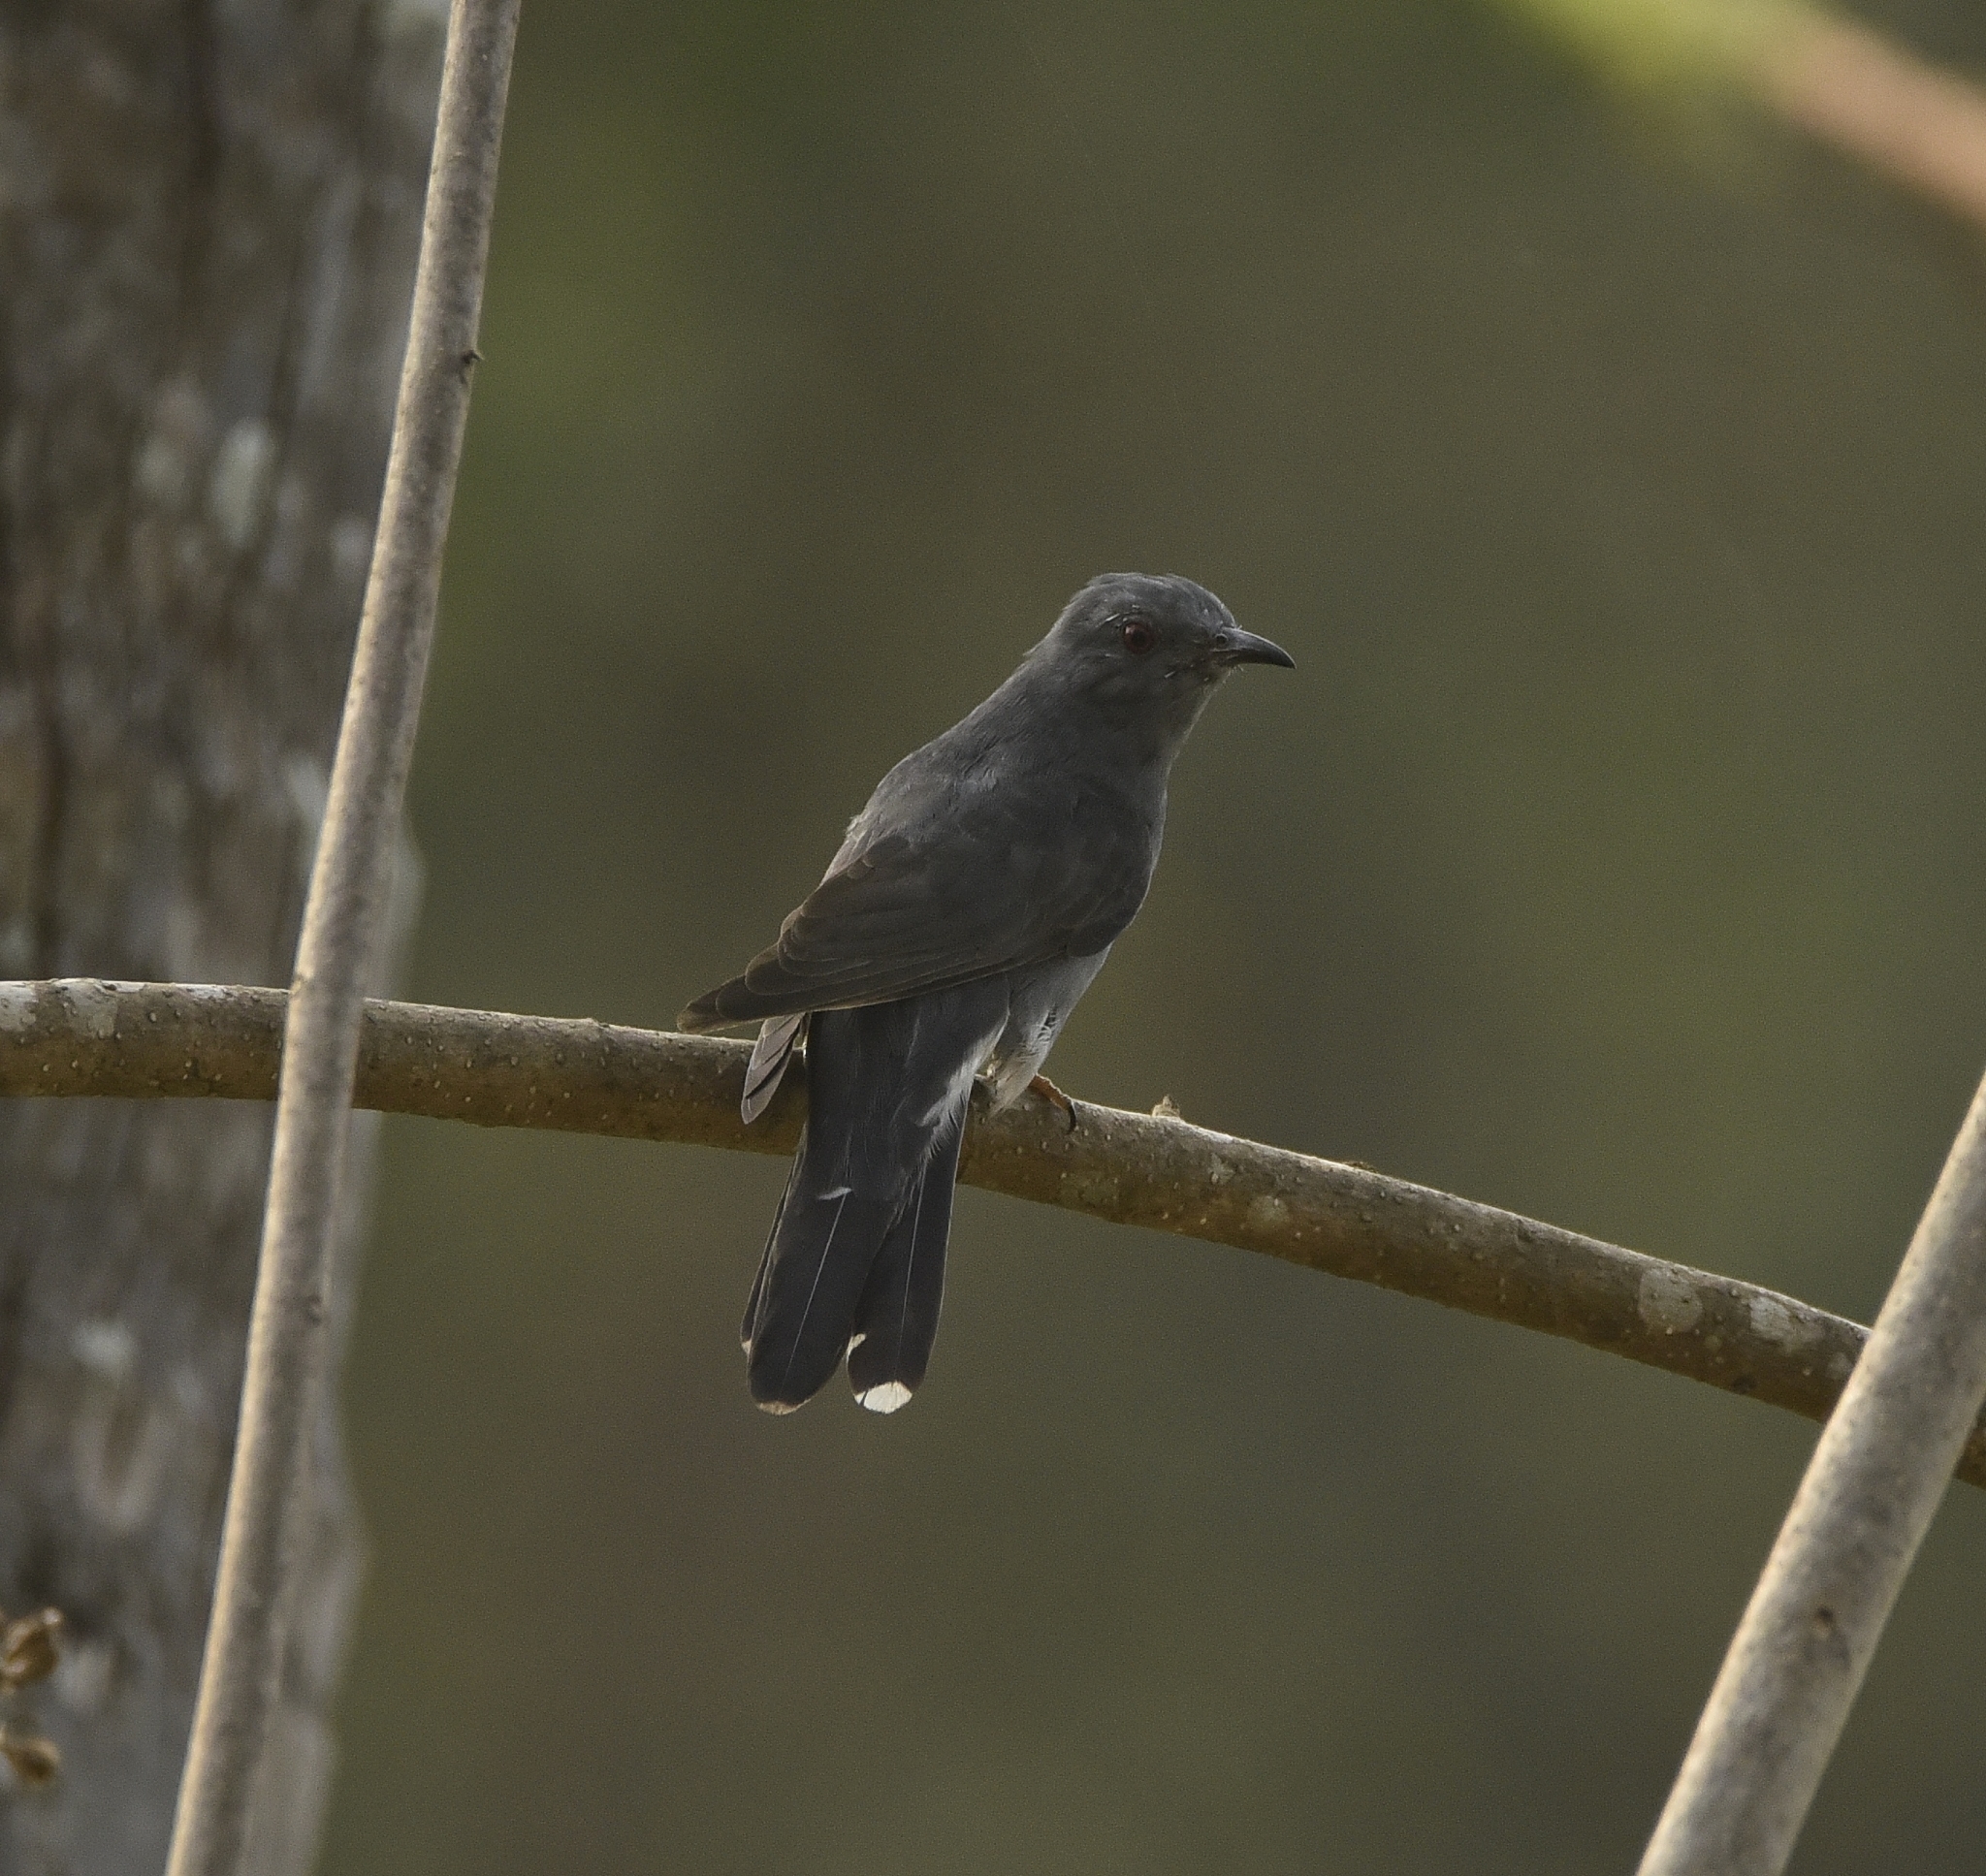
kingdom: Animalia
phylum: Chordata
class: Aves
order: Cuculiformes
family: Cuculidae
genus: Cacomantis
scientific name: Cacomantis passerinus
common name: Grey-bellied cuckoo
